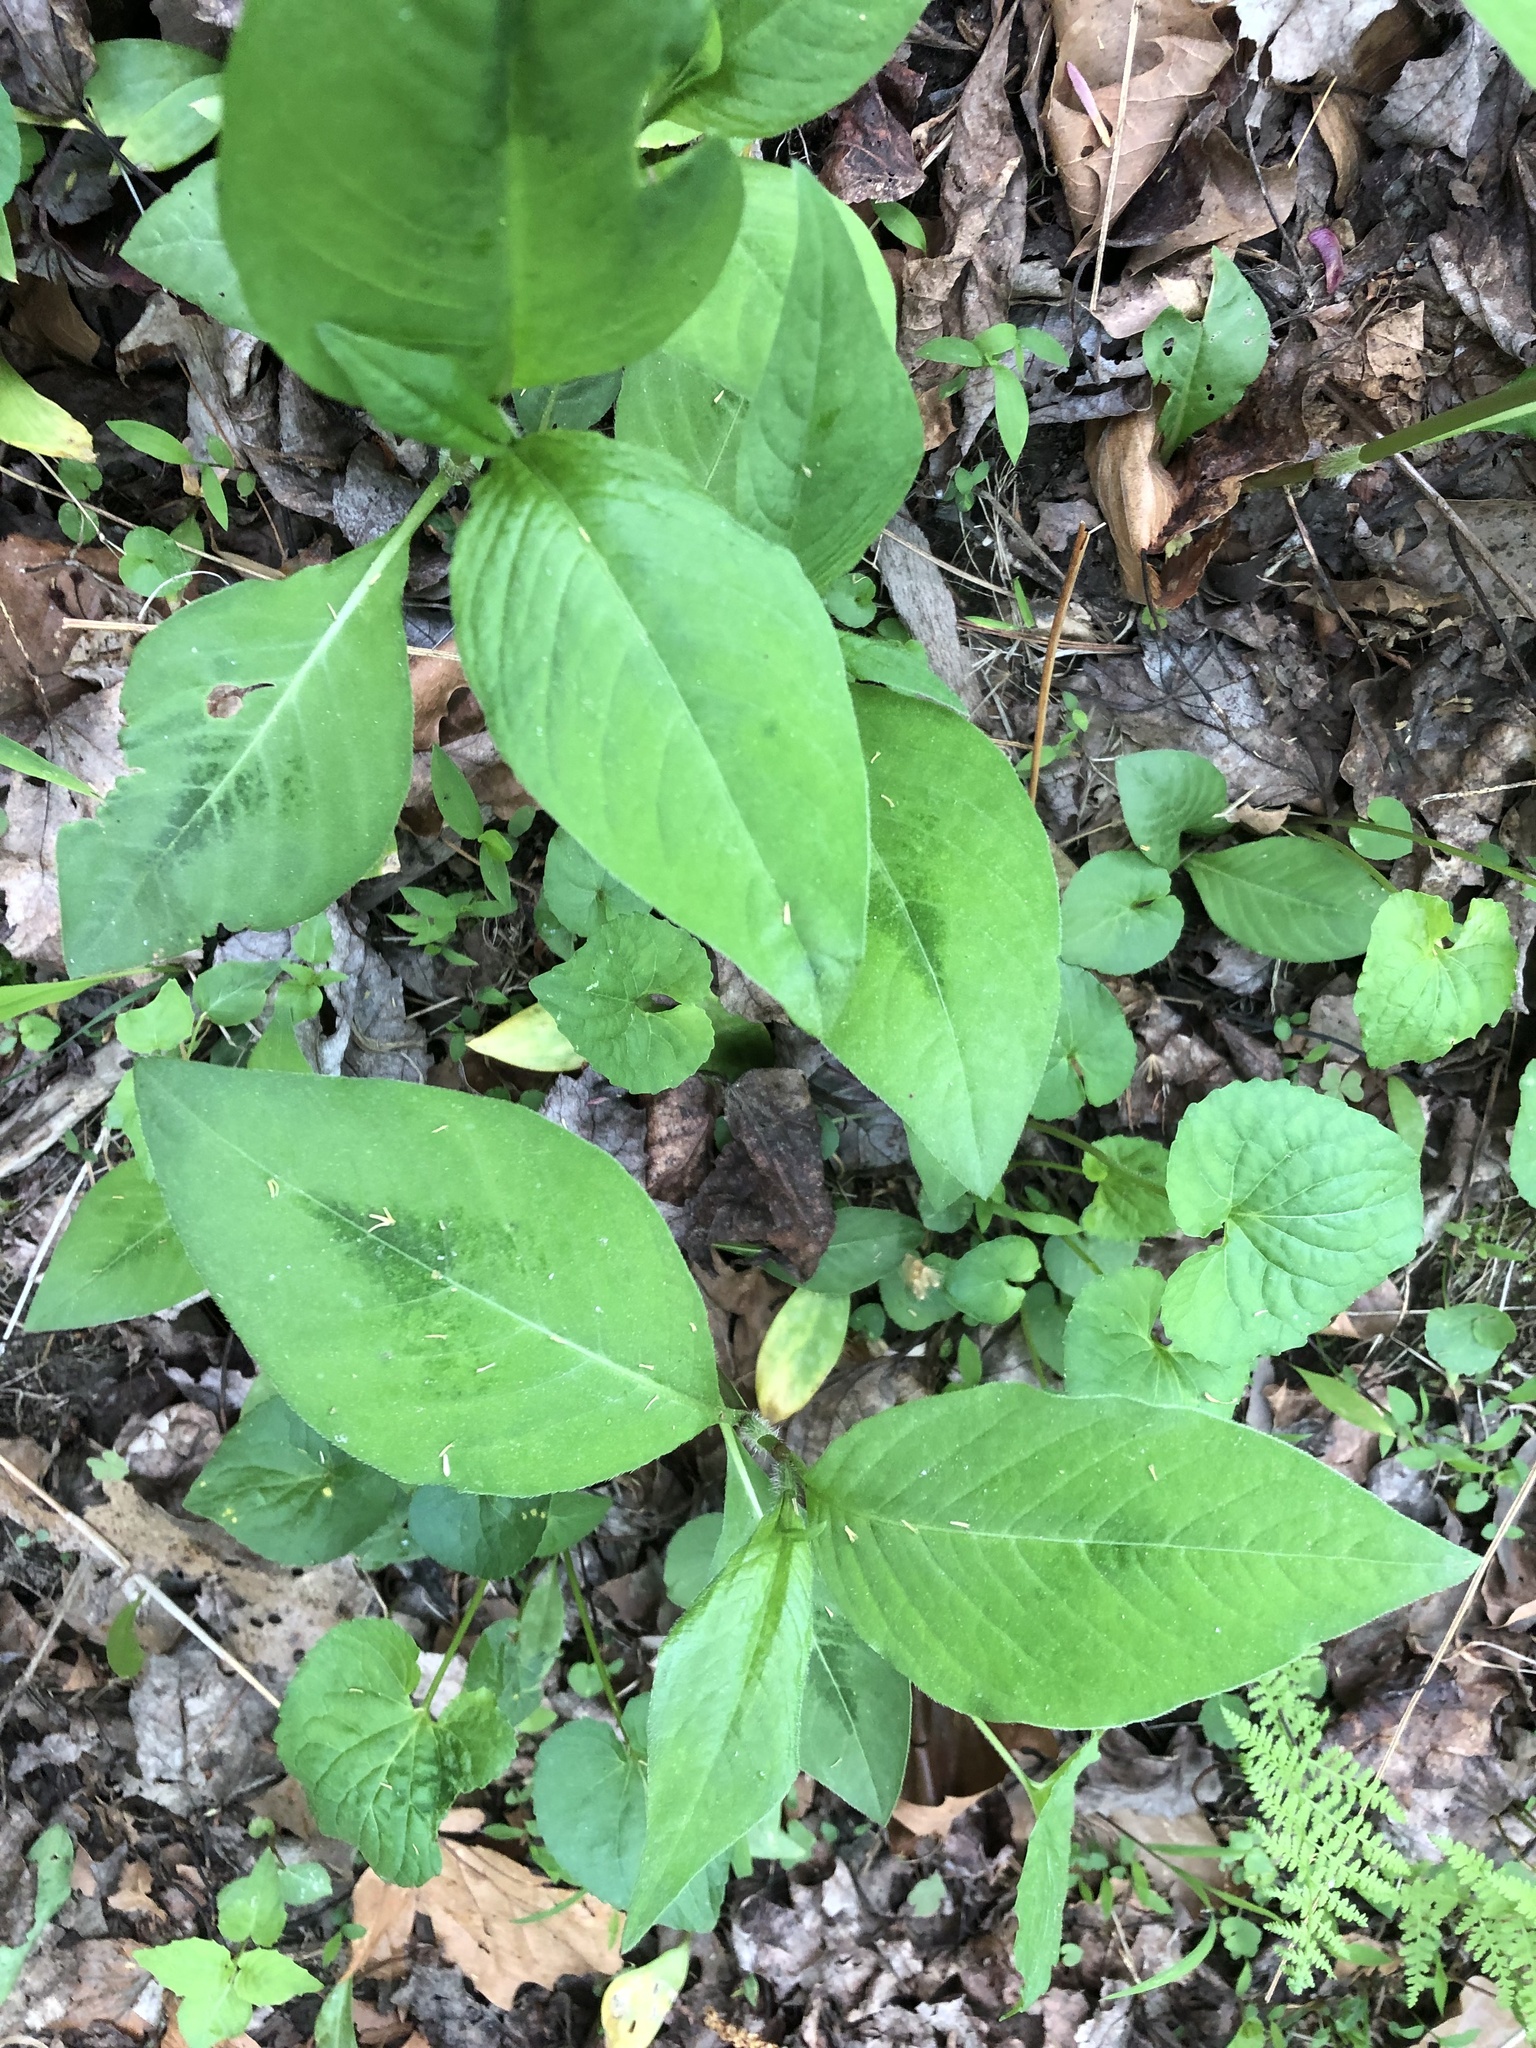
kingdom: Plantae
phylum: Tracheophyta
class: Magnoliopsida
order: Caryophyllales
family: Polygonaceae
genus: Persicaria
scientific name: Persicaria virginiana
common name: Jumpseed
